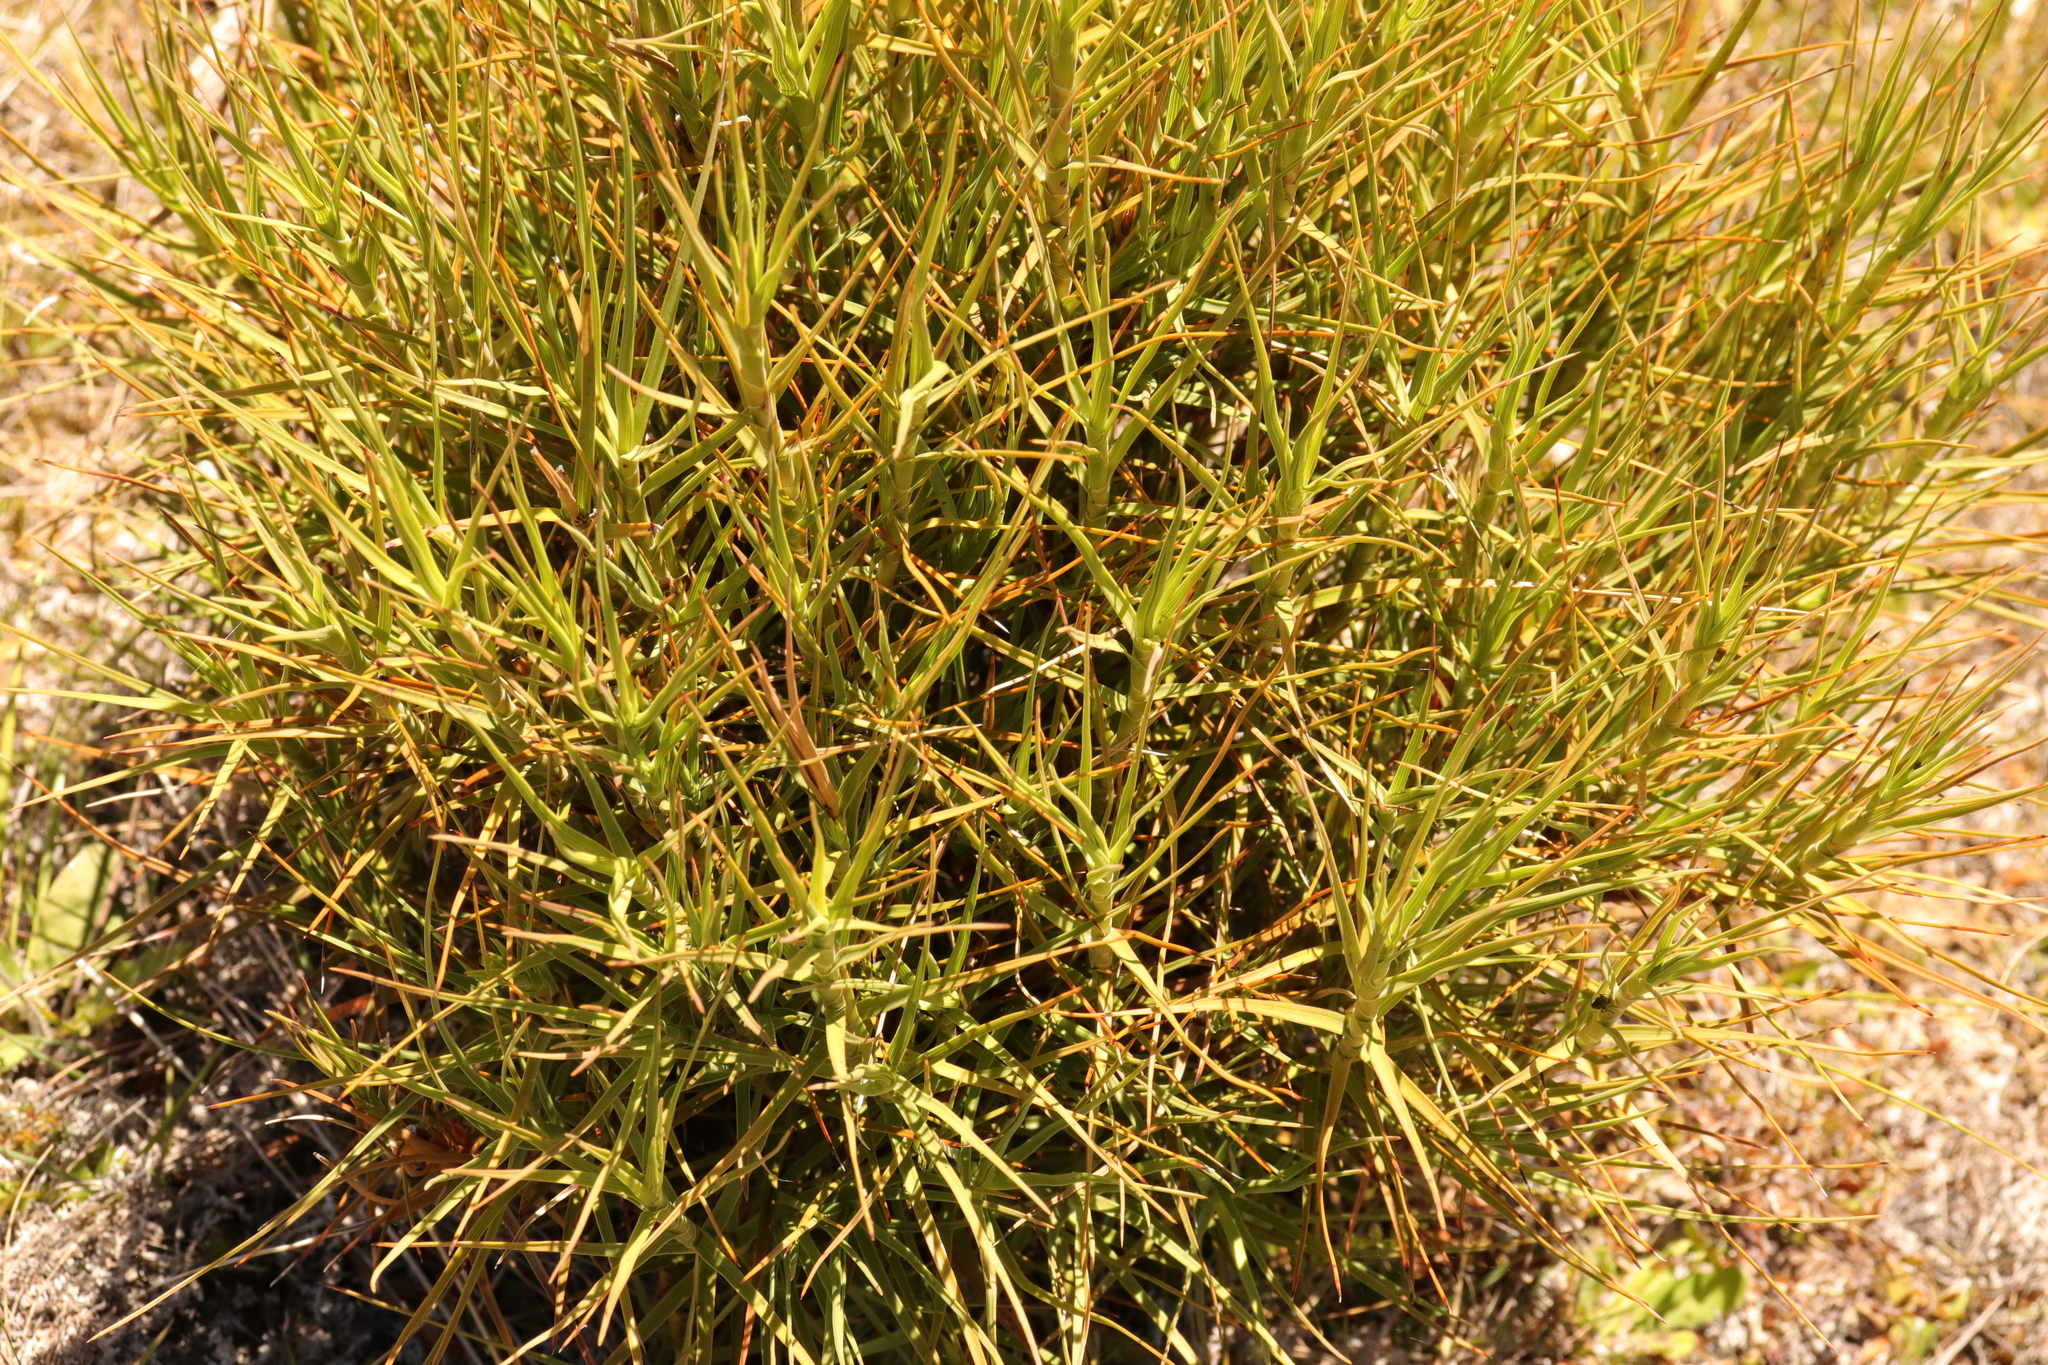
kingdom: Plantae
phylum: Tracheophyta
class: Magnoliopsida
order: Ericales
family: Ericaceae
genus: Dracophyllum
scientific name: Dracophyllum longifolium
